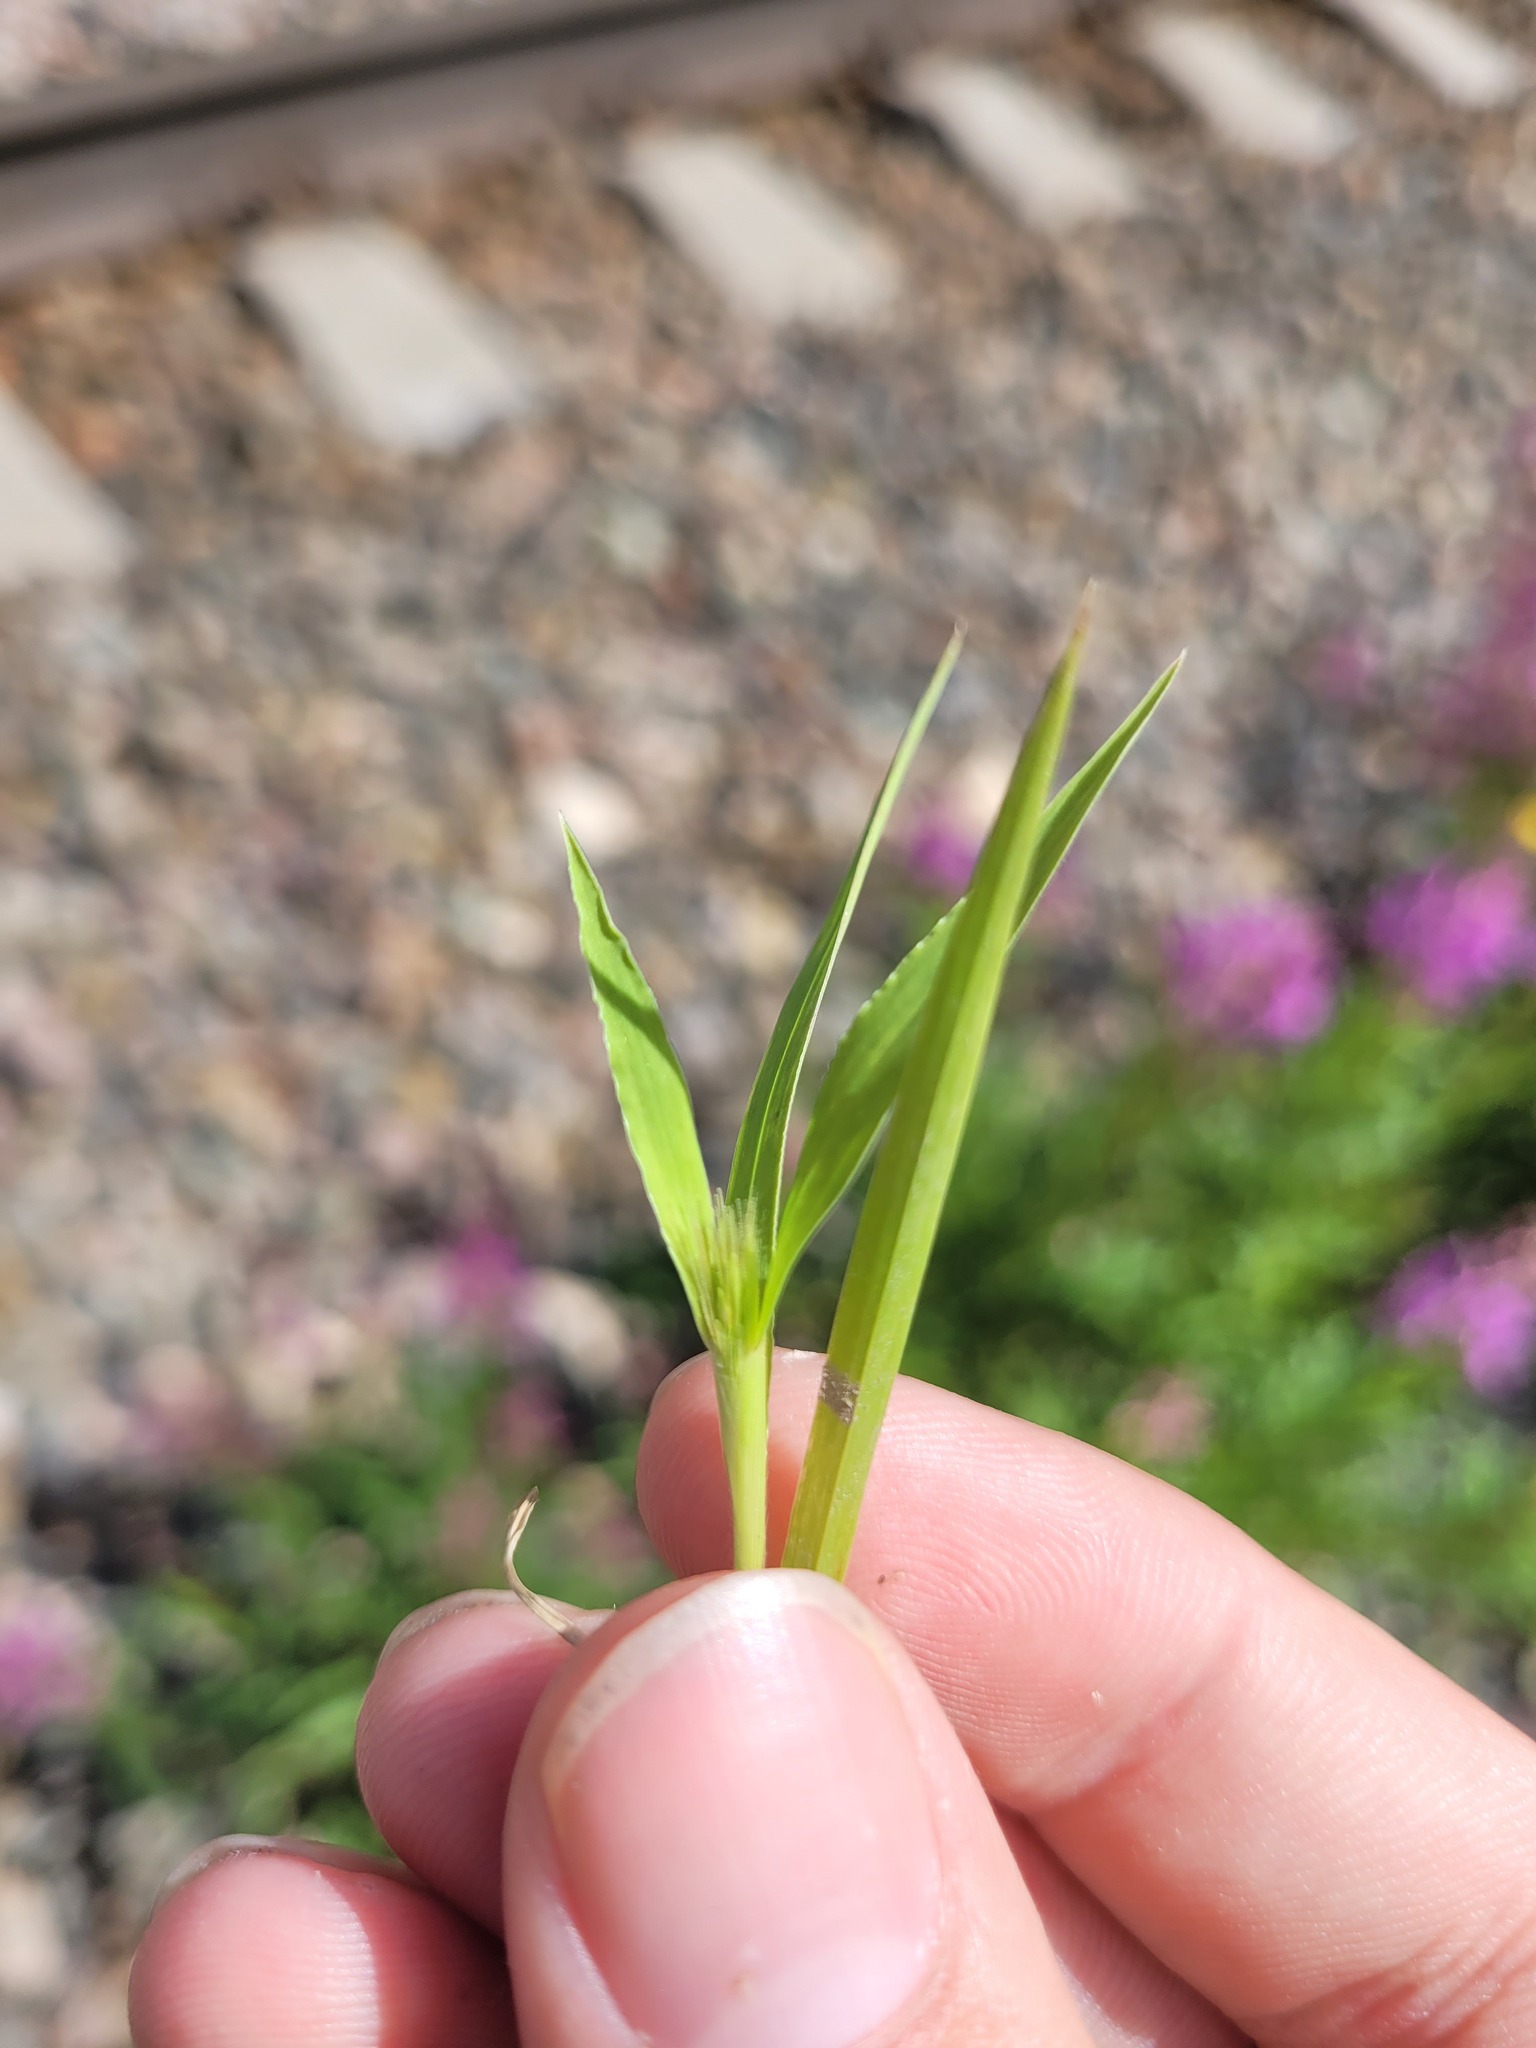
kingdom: Plantae
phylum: Tracheophyta
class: Liliopsida
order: Poales
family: Poaceae
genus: Setaria
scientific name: Setaria viridis
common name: Green bristlegrass
